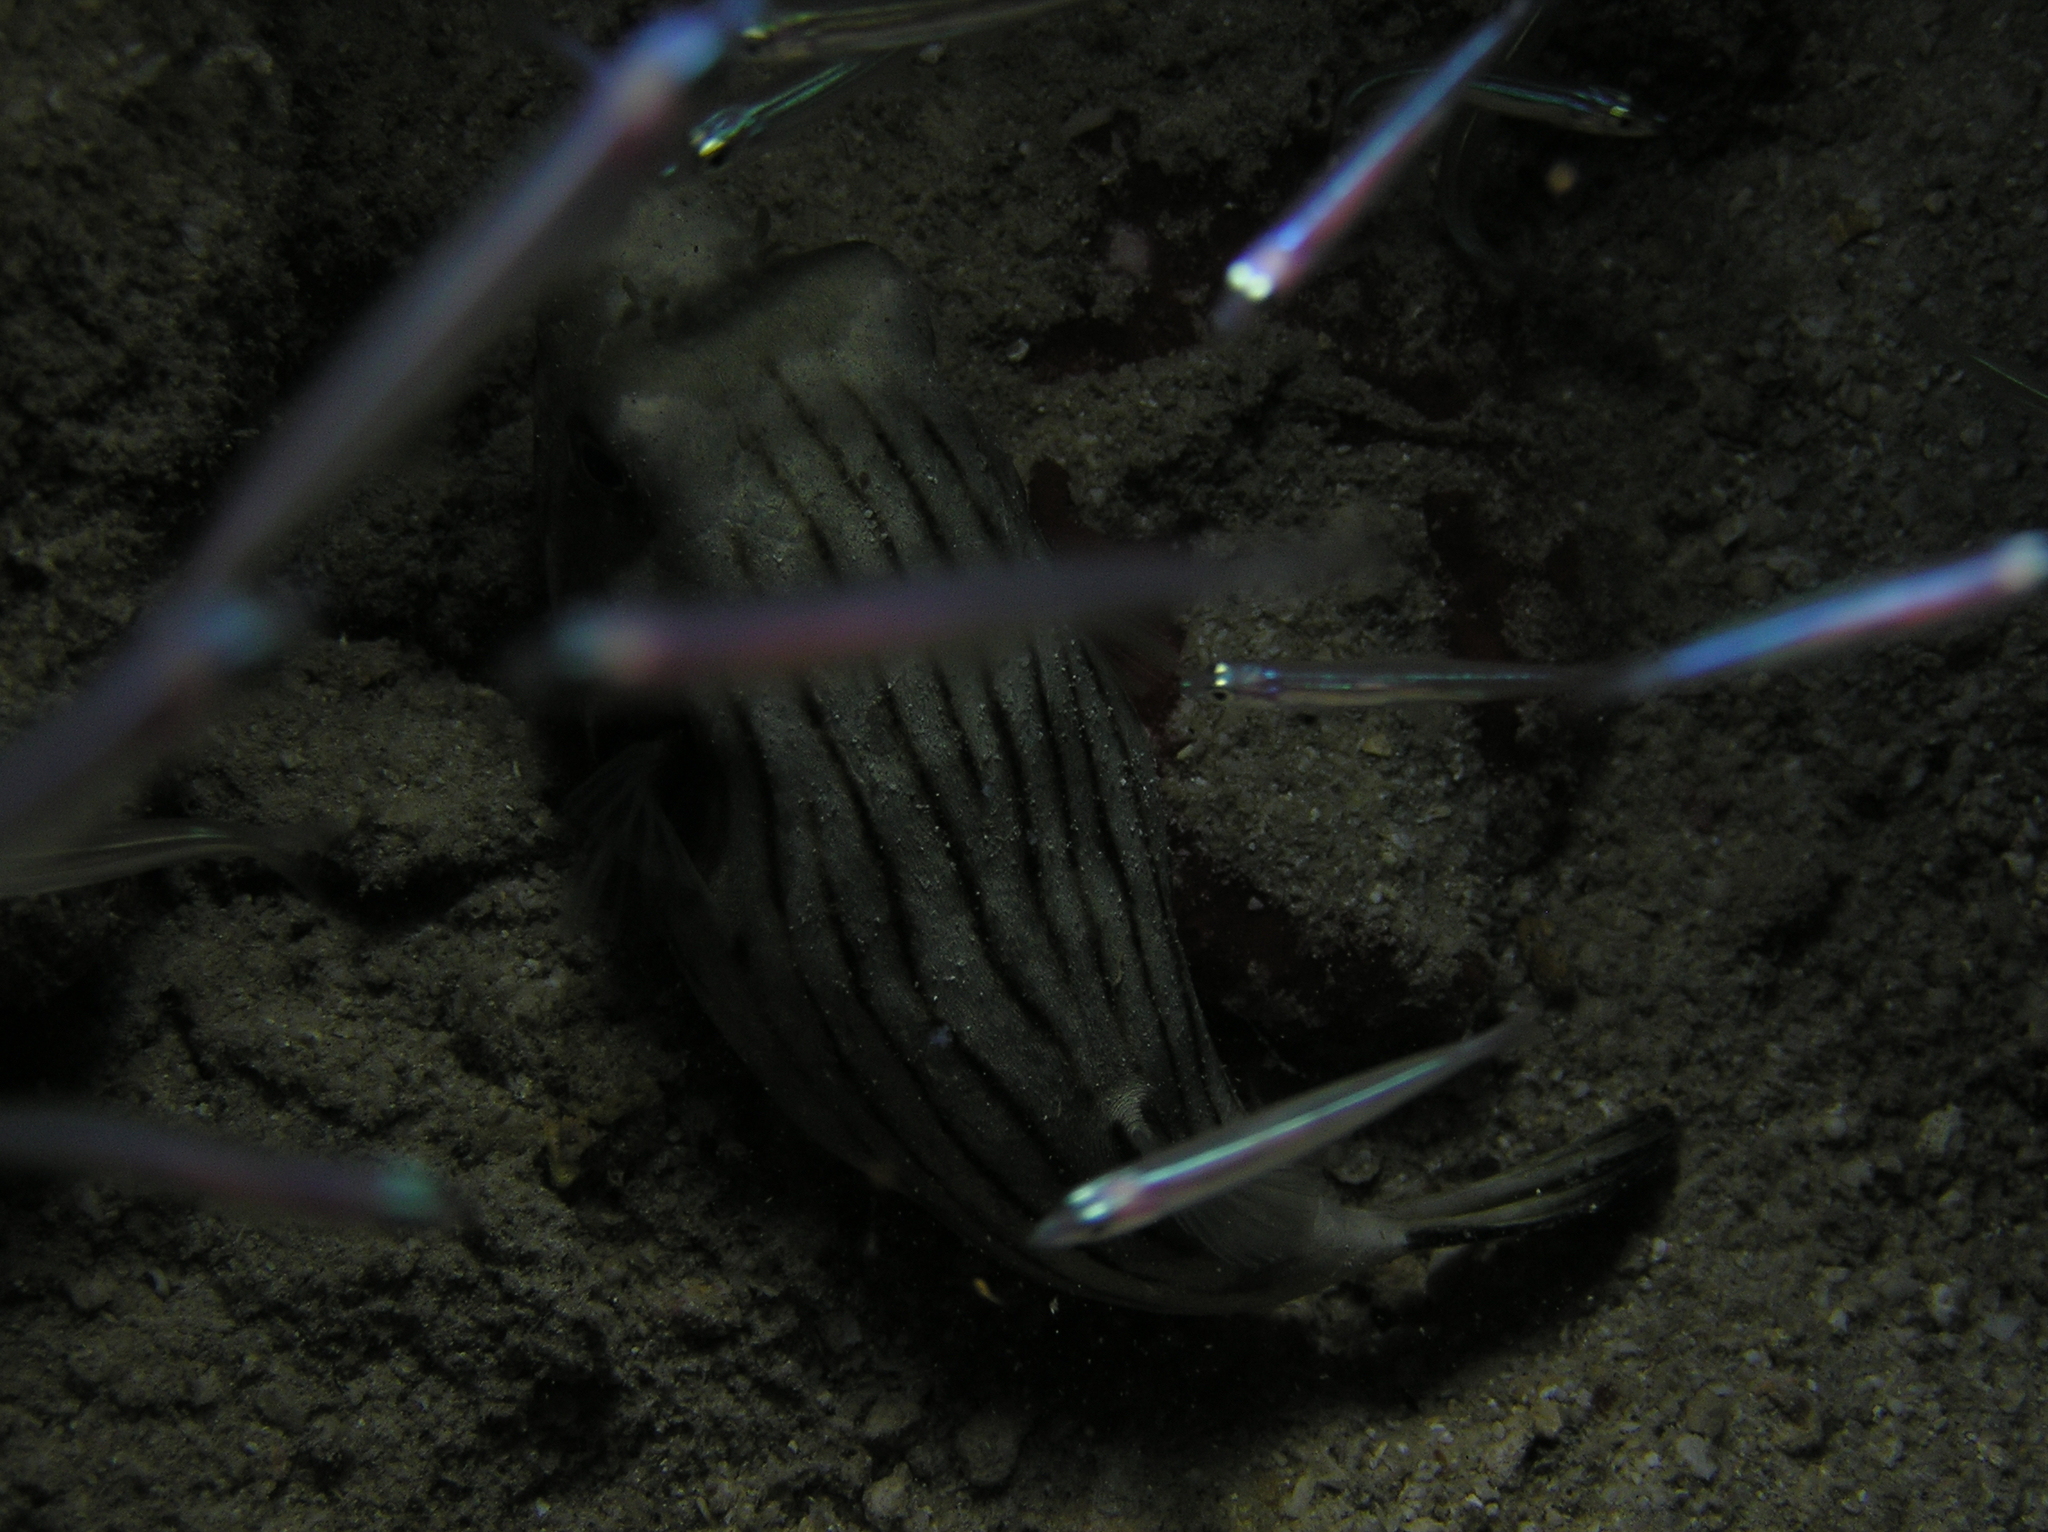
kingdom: Animalia
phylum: Chordata
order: Tetraodontiformes
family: Tetraodontidae
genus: Arothron
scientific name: Arothron manilensis
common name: Narrow-lined puffer
